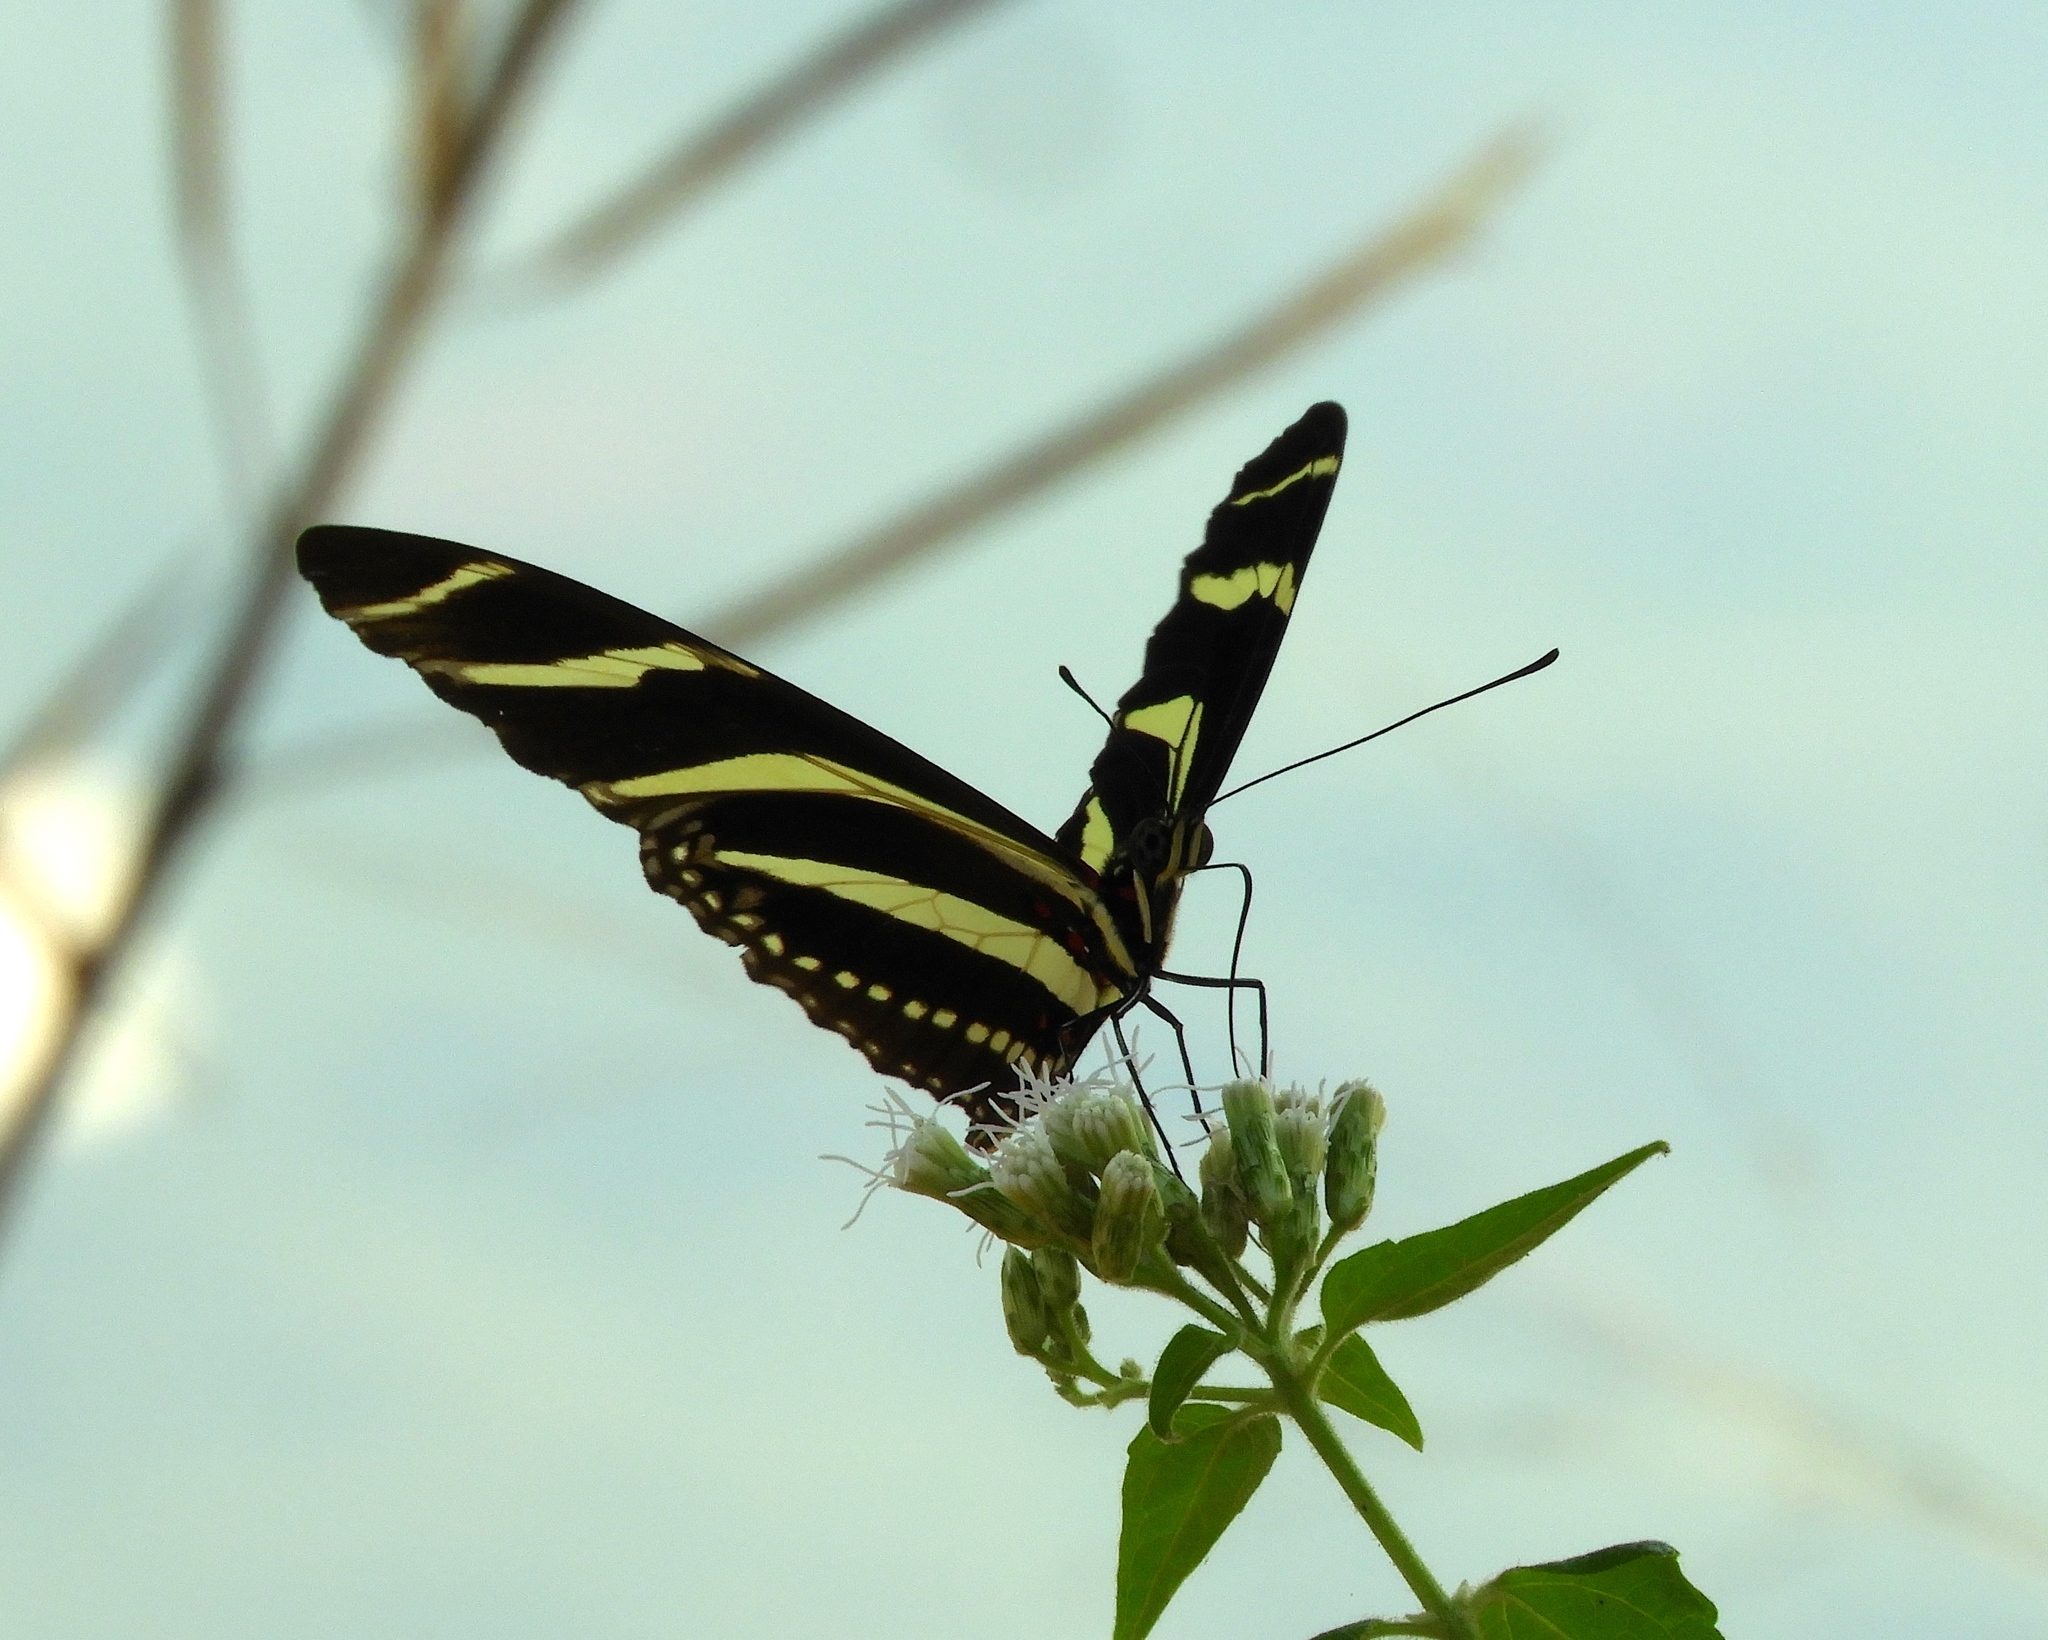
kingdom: Animalia
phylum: Arthropoda
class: Insecta
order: Lepidoptera
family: Nymphalidae
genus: Heliconius
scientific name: Heliconius charithonia
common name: Zebra long wing
